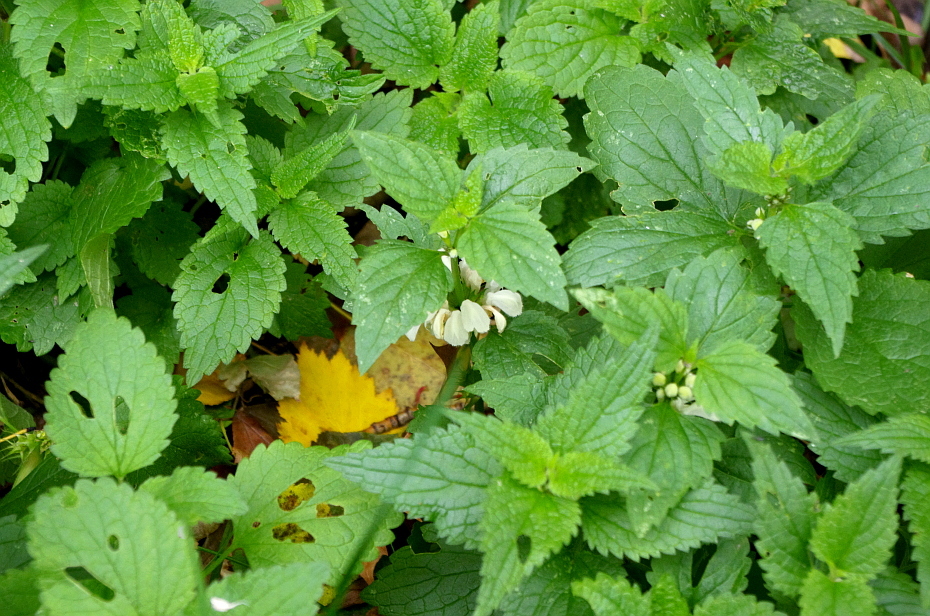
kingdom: Plantae
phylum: Tracheophyta
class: Magnoliopsida
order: Lamiales
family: Lamiaceae
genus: Lamium
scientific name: Lamium album
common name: White dead-nettle
